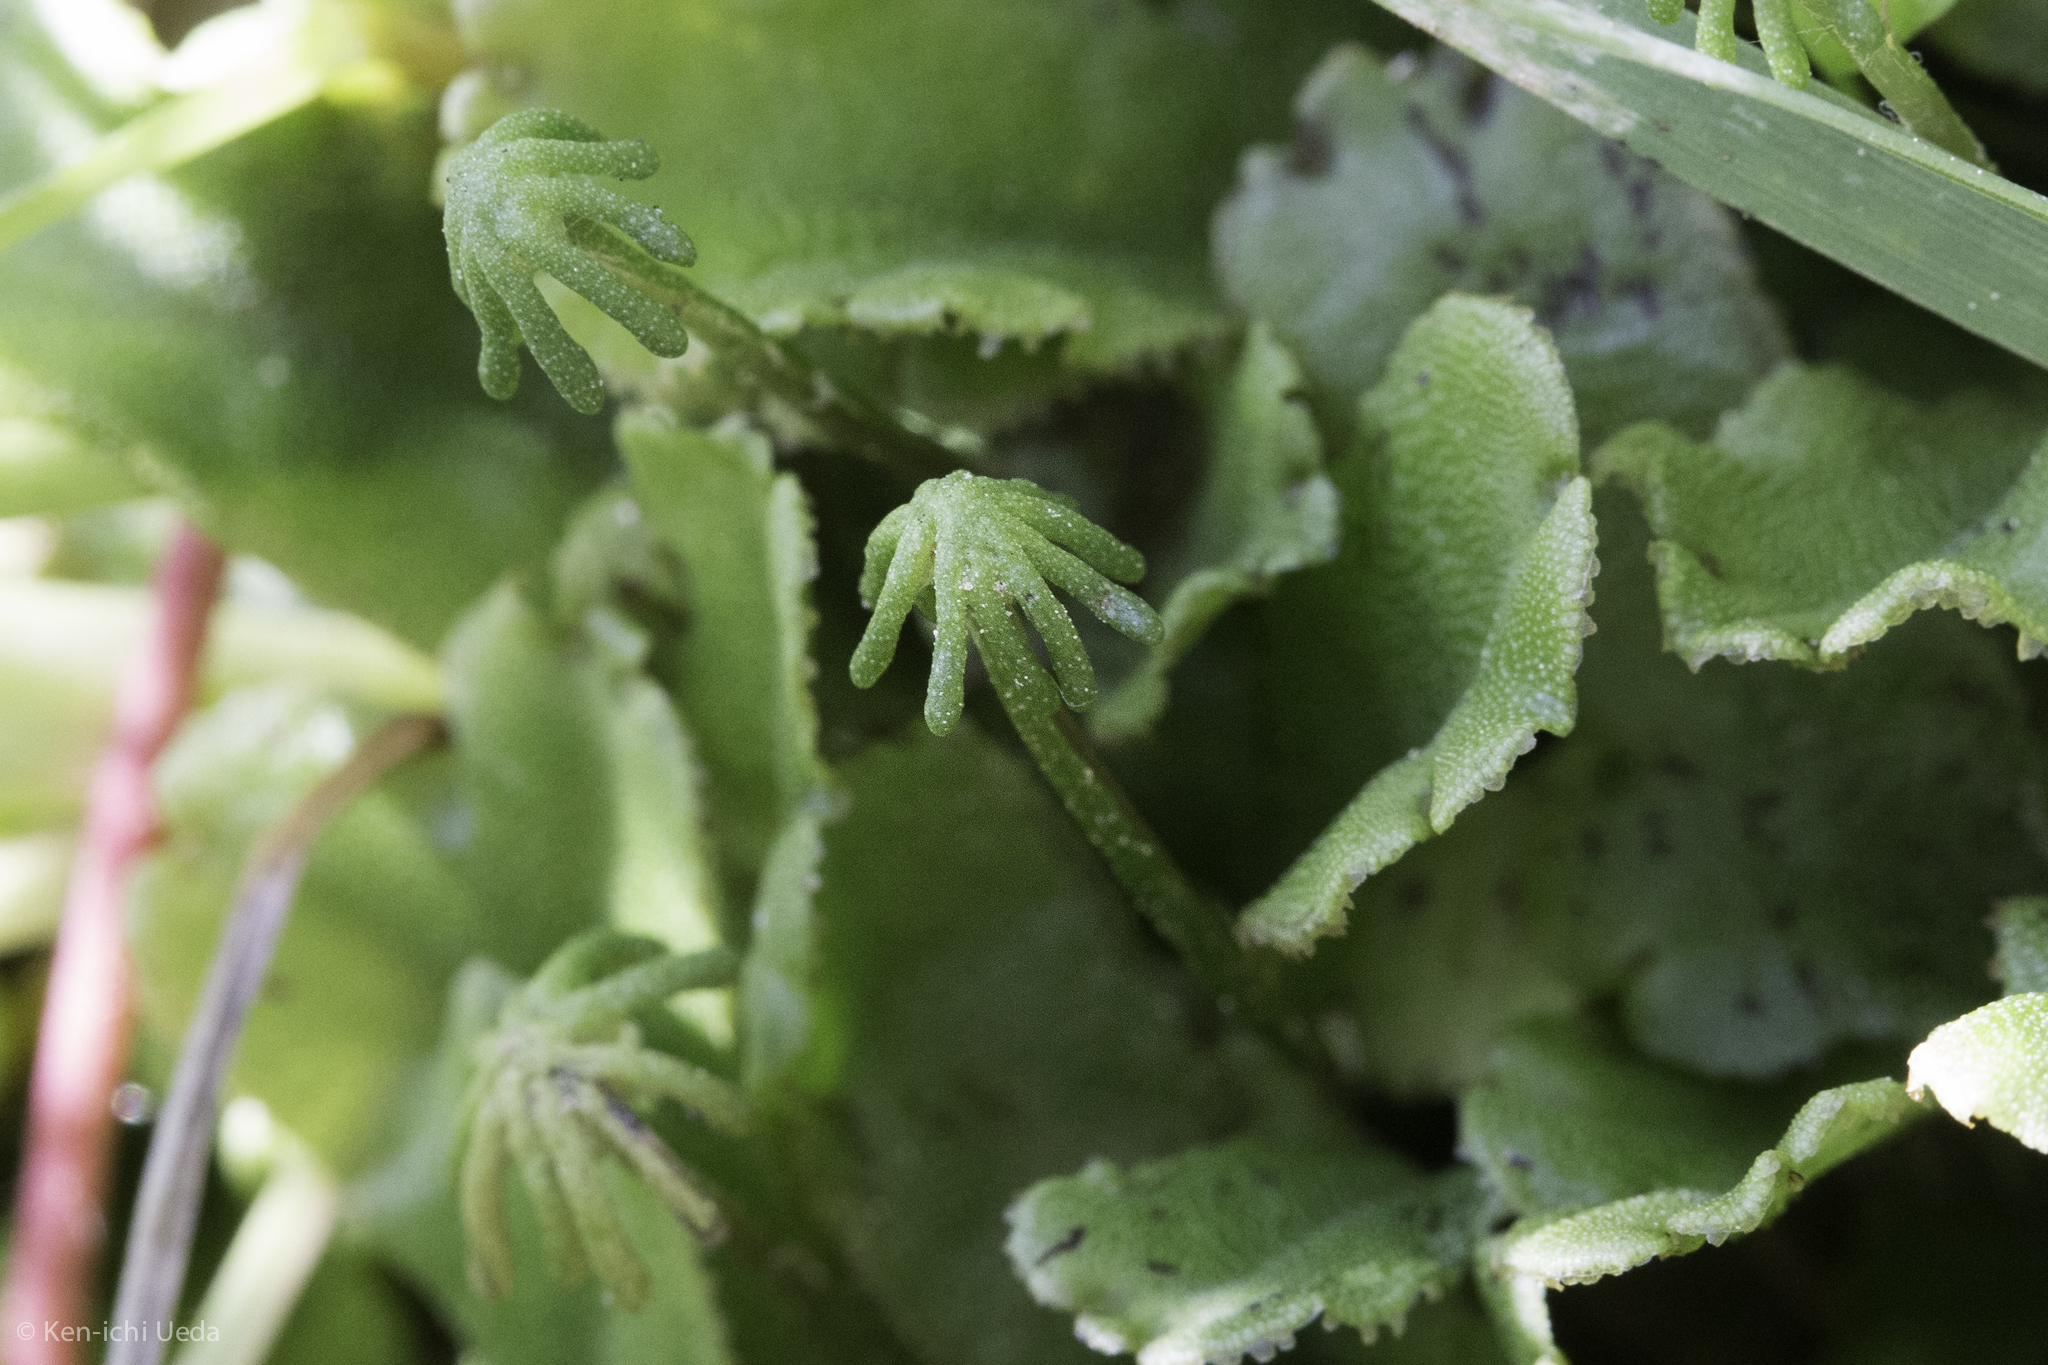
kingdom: Plantae
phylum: Marchantiophyta
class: Marchantiopsida
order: Marchantiales
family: Marchantiaceae
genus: Marchantia
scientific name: Marchantia polymorpha
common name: Common liverwort
